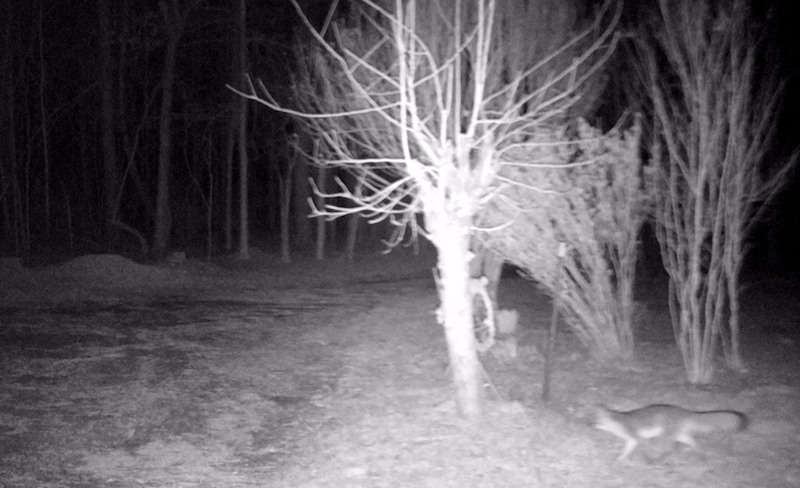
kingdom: Animalia
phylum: Chordata
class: Mammalia
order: Carnivora
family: Canidae
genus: Urocyon
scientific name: Urocyon cinereoargenteus
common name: Gray fox
